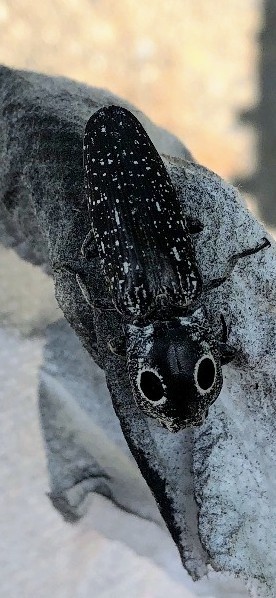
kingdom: Animalia
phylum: Arthropoda
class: Insecta
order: Coleoptera
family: Elateridae
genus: Alaus
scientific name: Alaus oculatus
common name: Eastern eyed click beetle
